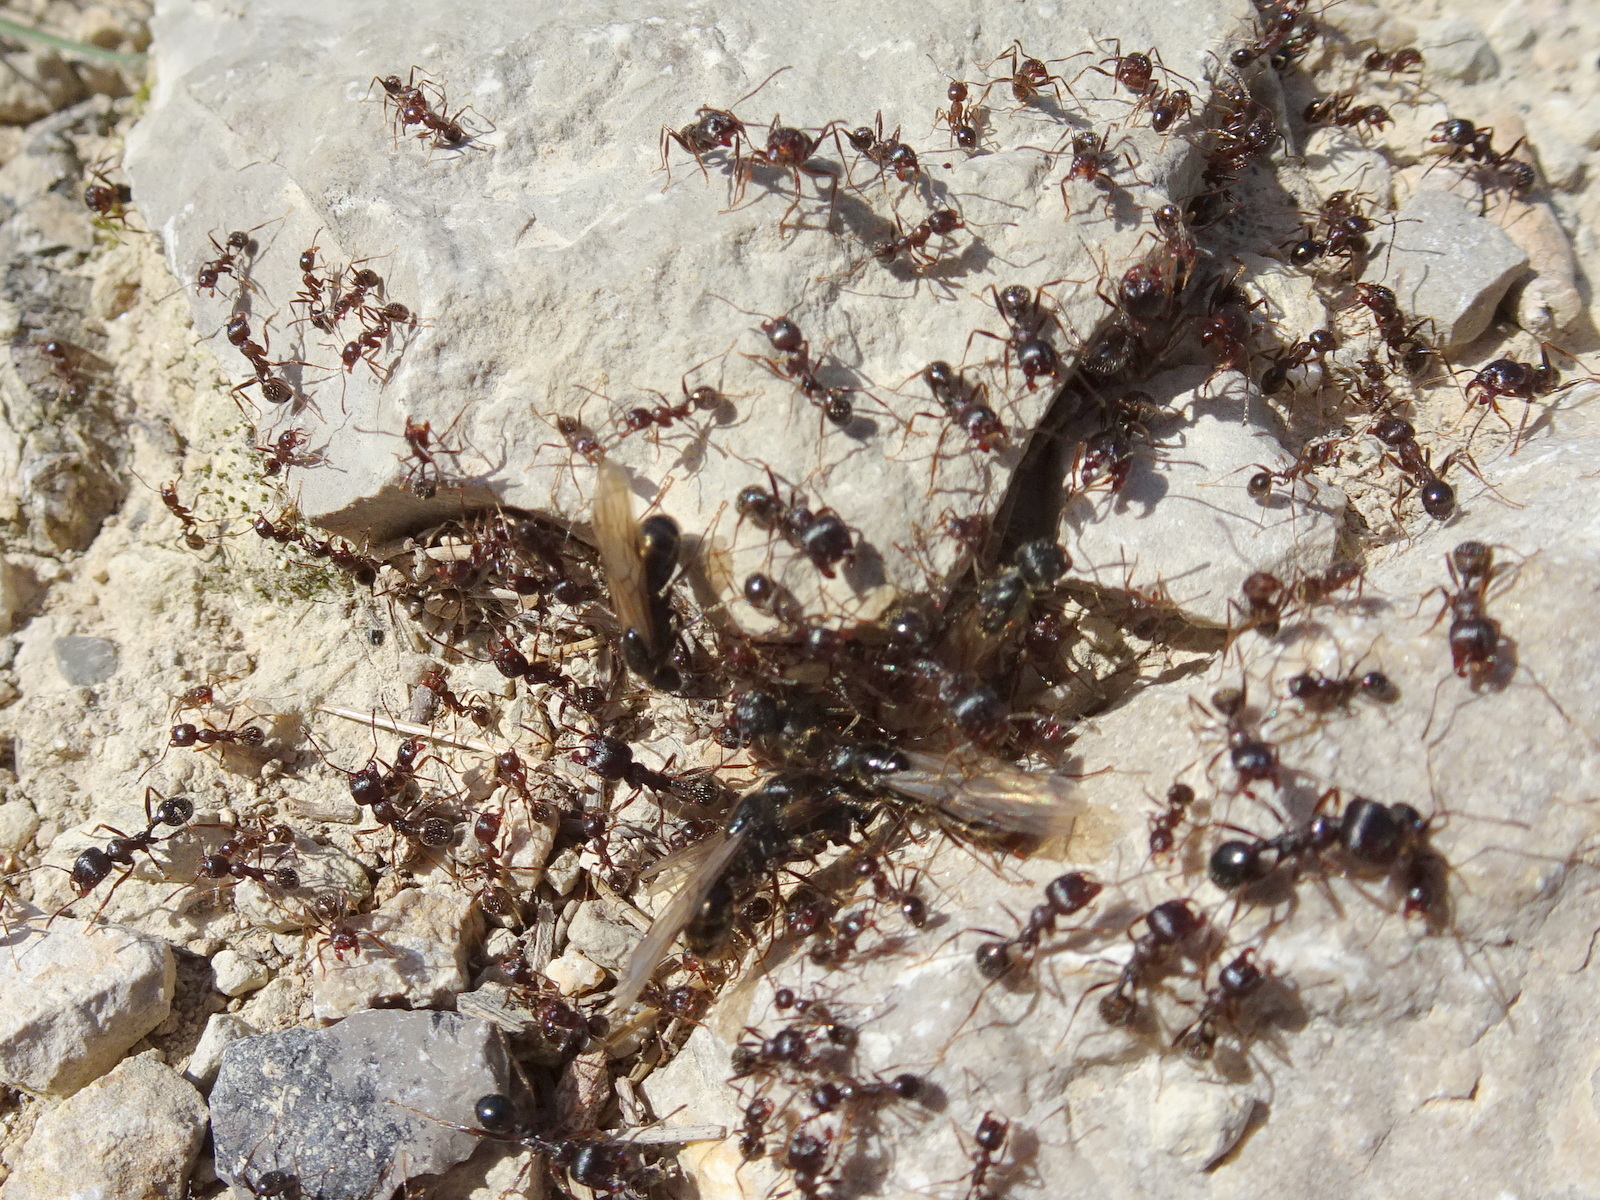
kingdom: Animalia
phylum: Arthropoda
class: Insecta
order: Hymenoptera
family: Formicidae
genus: Messor
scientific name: Messor structor
